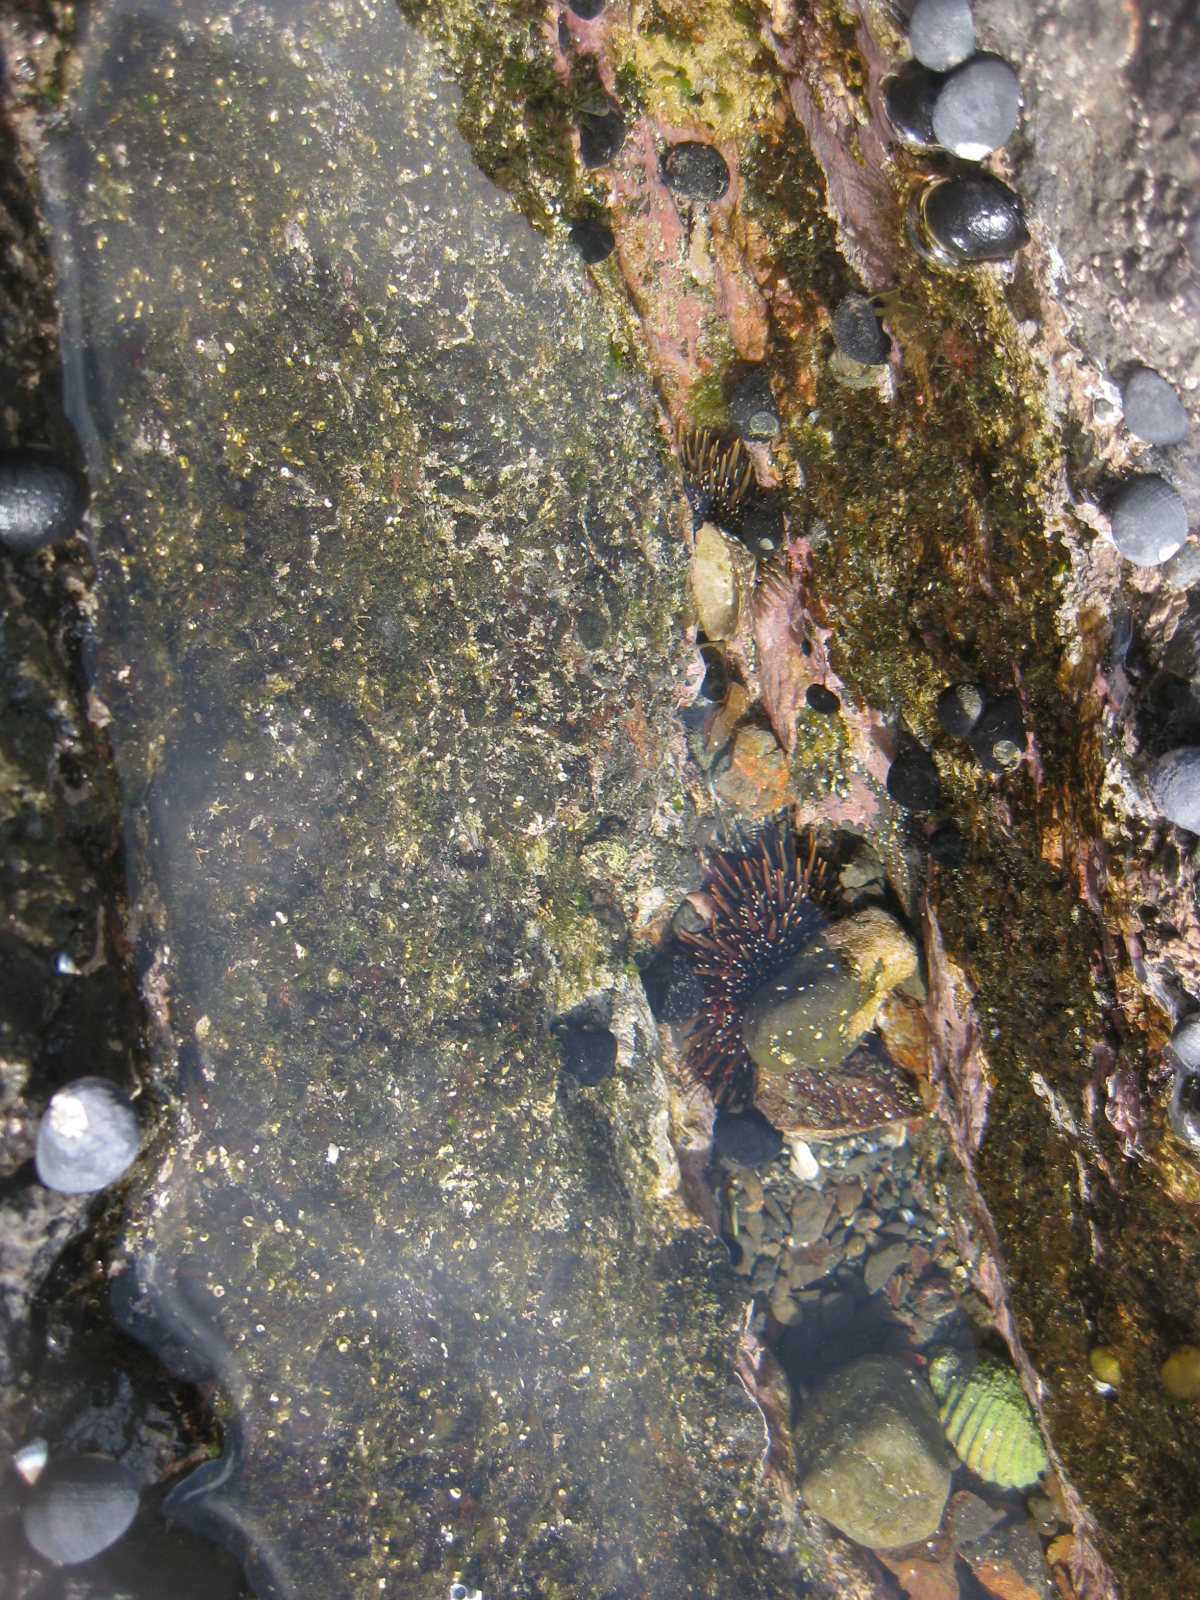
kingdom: Animalia
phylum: Echinodermata
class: Echinoidea
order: Camarodonta
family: Echinometridae
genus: Evechinus
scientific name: Evechinus chloroticus
